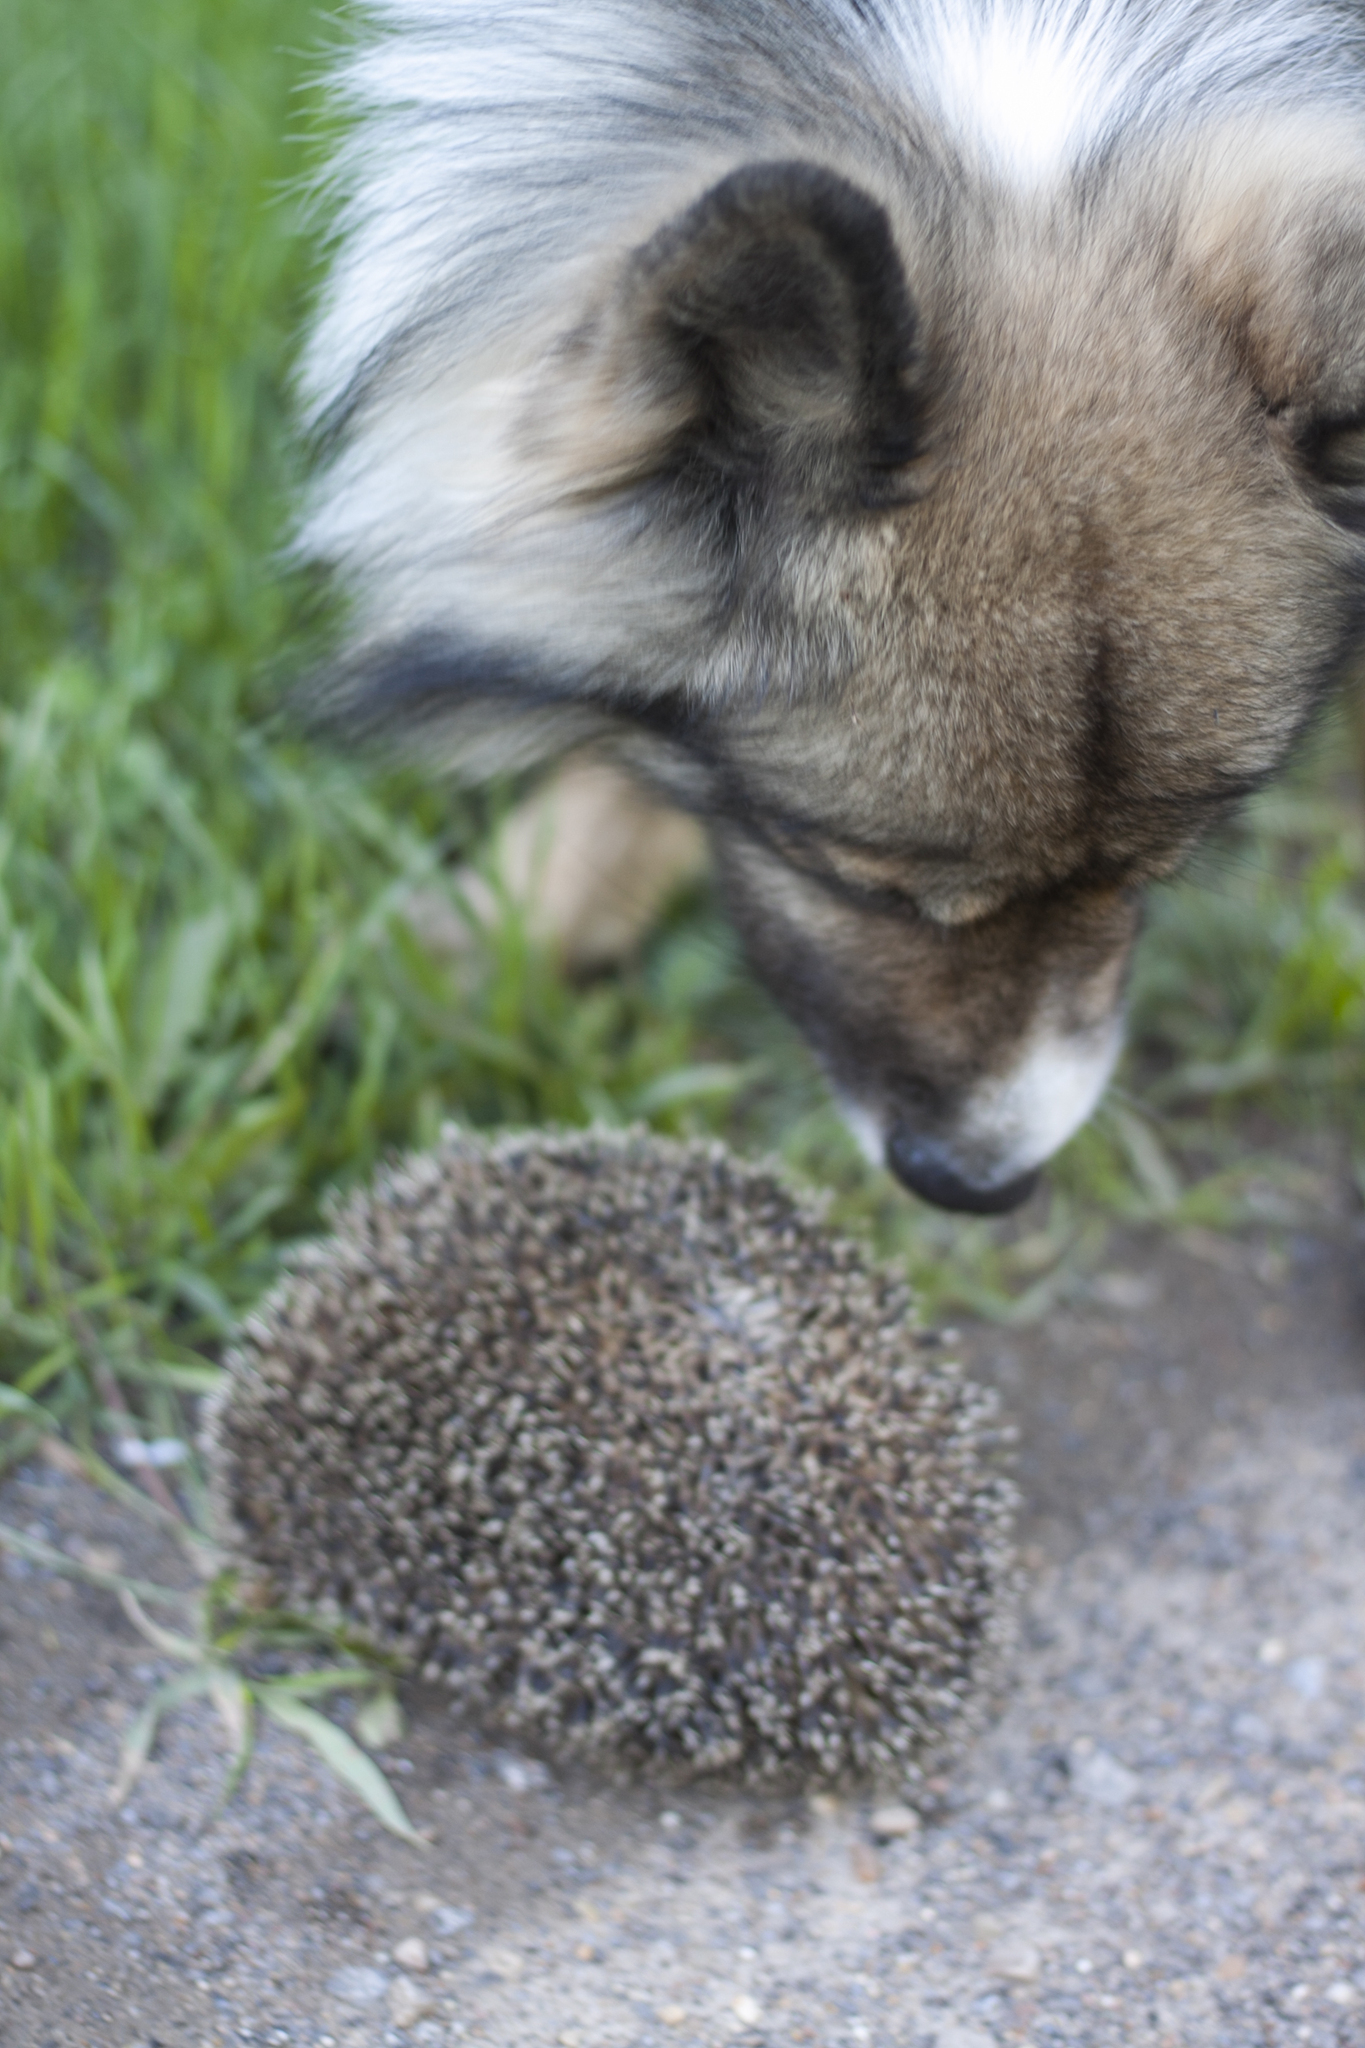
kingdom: Animalia
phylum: Chordata
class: Mammalia
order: Erinaceomorpha
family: Erinaceidae
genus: Erinaceus
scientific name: Erinaceus roumanicus
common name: Northern white-breasted hedgehog
